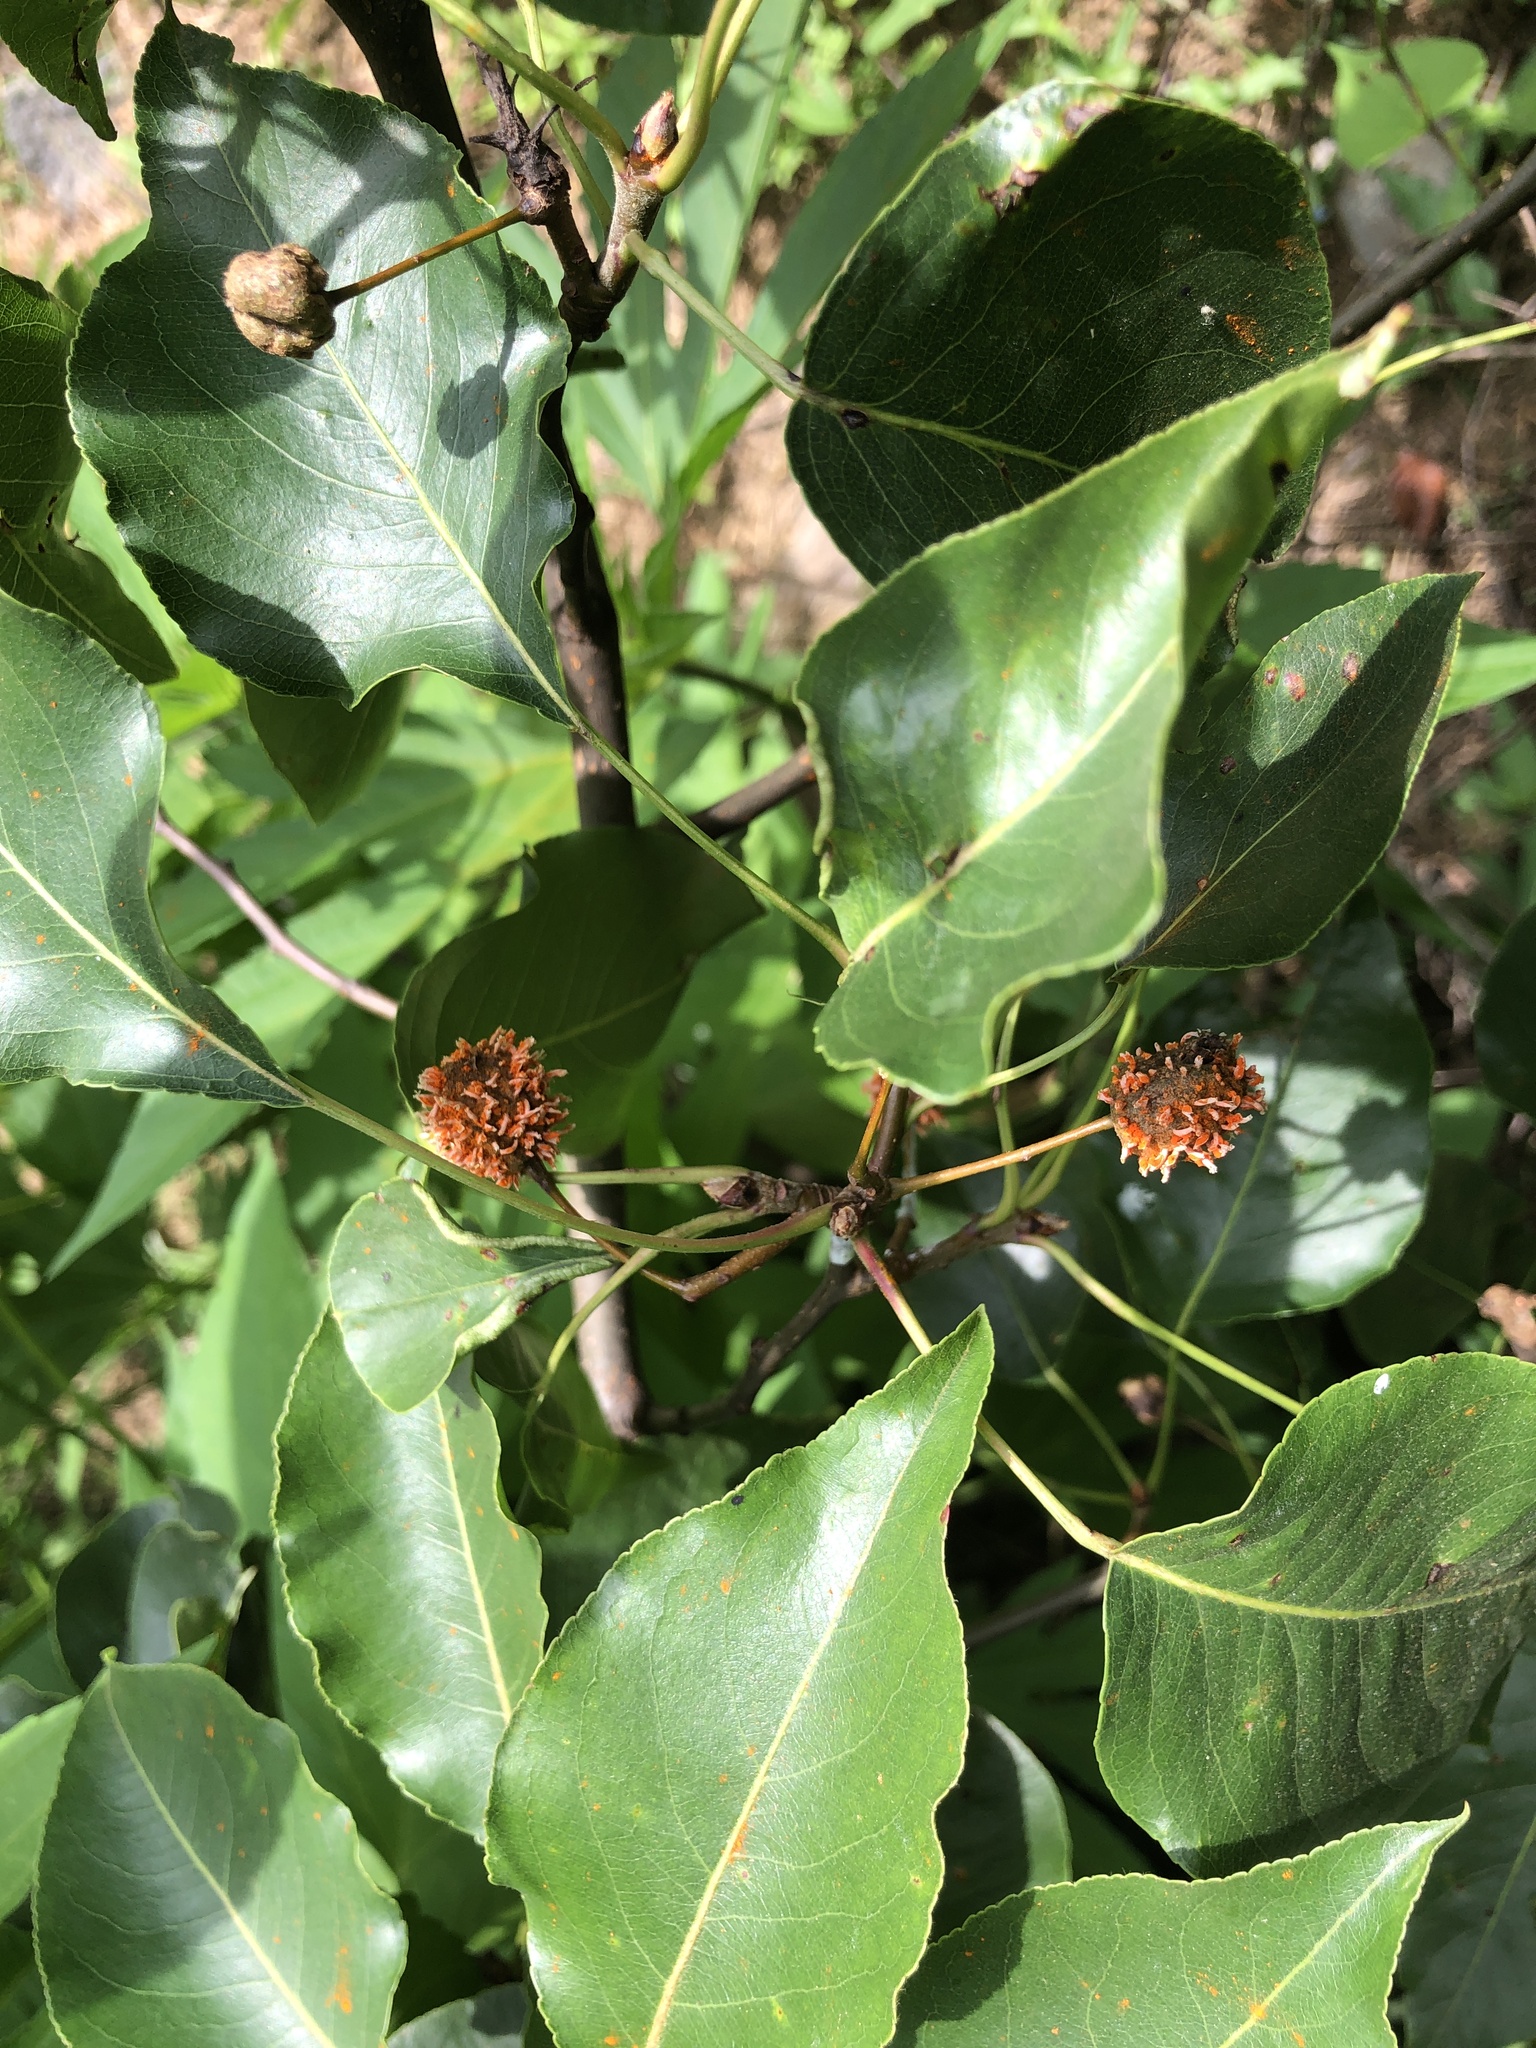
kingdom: Fungi
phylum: Basidiomycota
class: Pucciniomycetes
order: Pucciniales
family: Gymnosporangiaceae
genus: Gymnosporangium
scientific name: Gymnosporangium clavipes
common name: Quince rust
